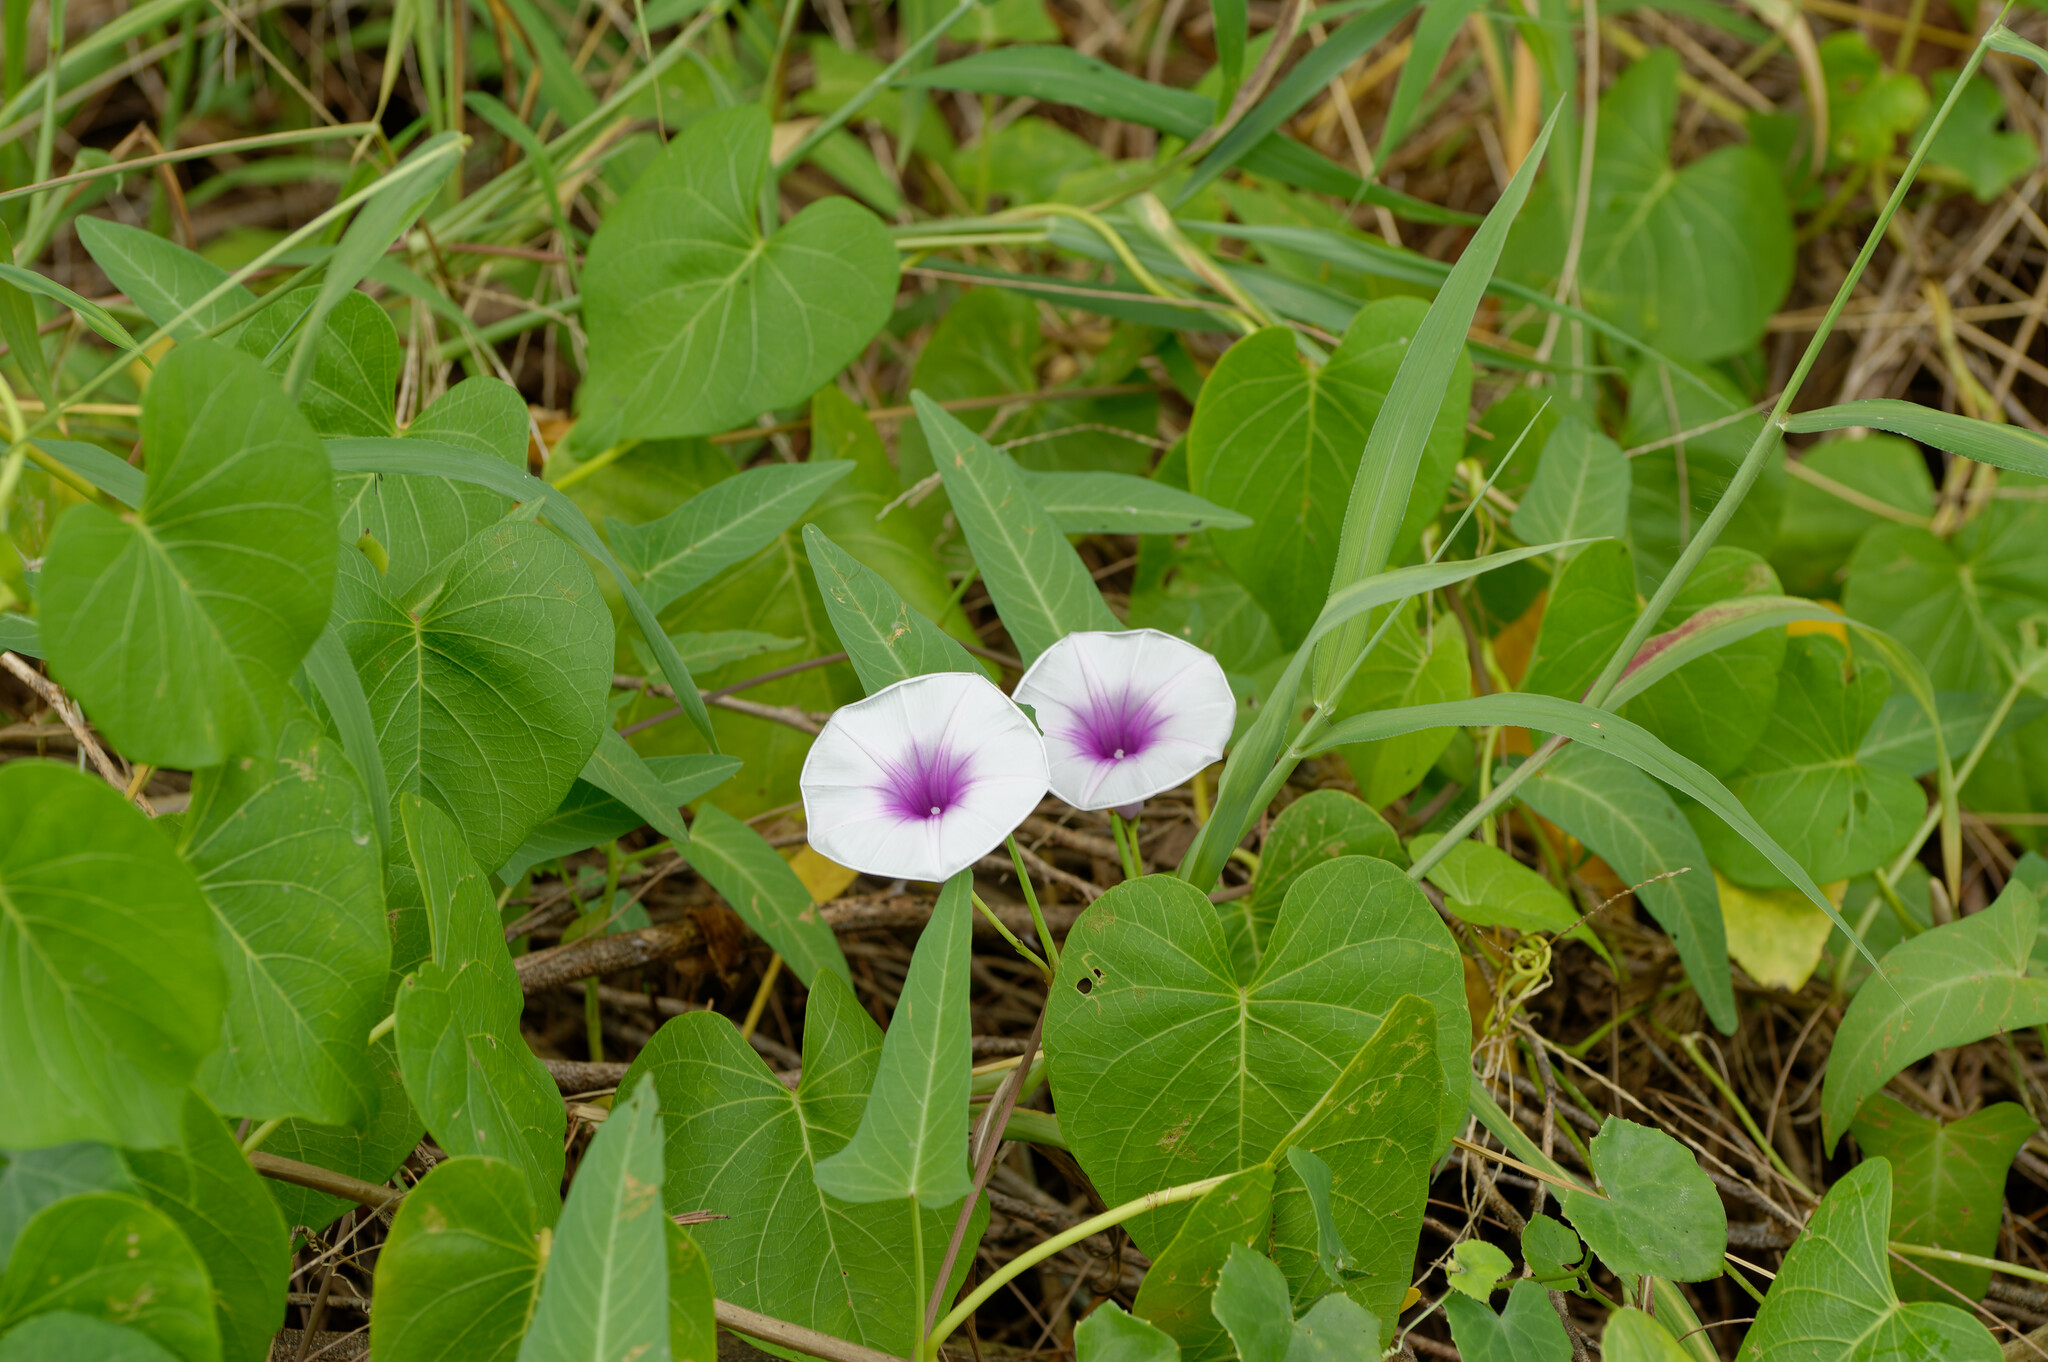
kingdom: Plantae
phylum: Tracheophyta
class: Magnoliopsida
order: Solanales
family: Convolvulaceae
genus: Ipomoea
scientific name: Ipomoea aquatica
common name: Swamp morning-glory
